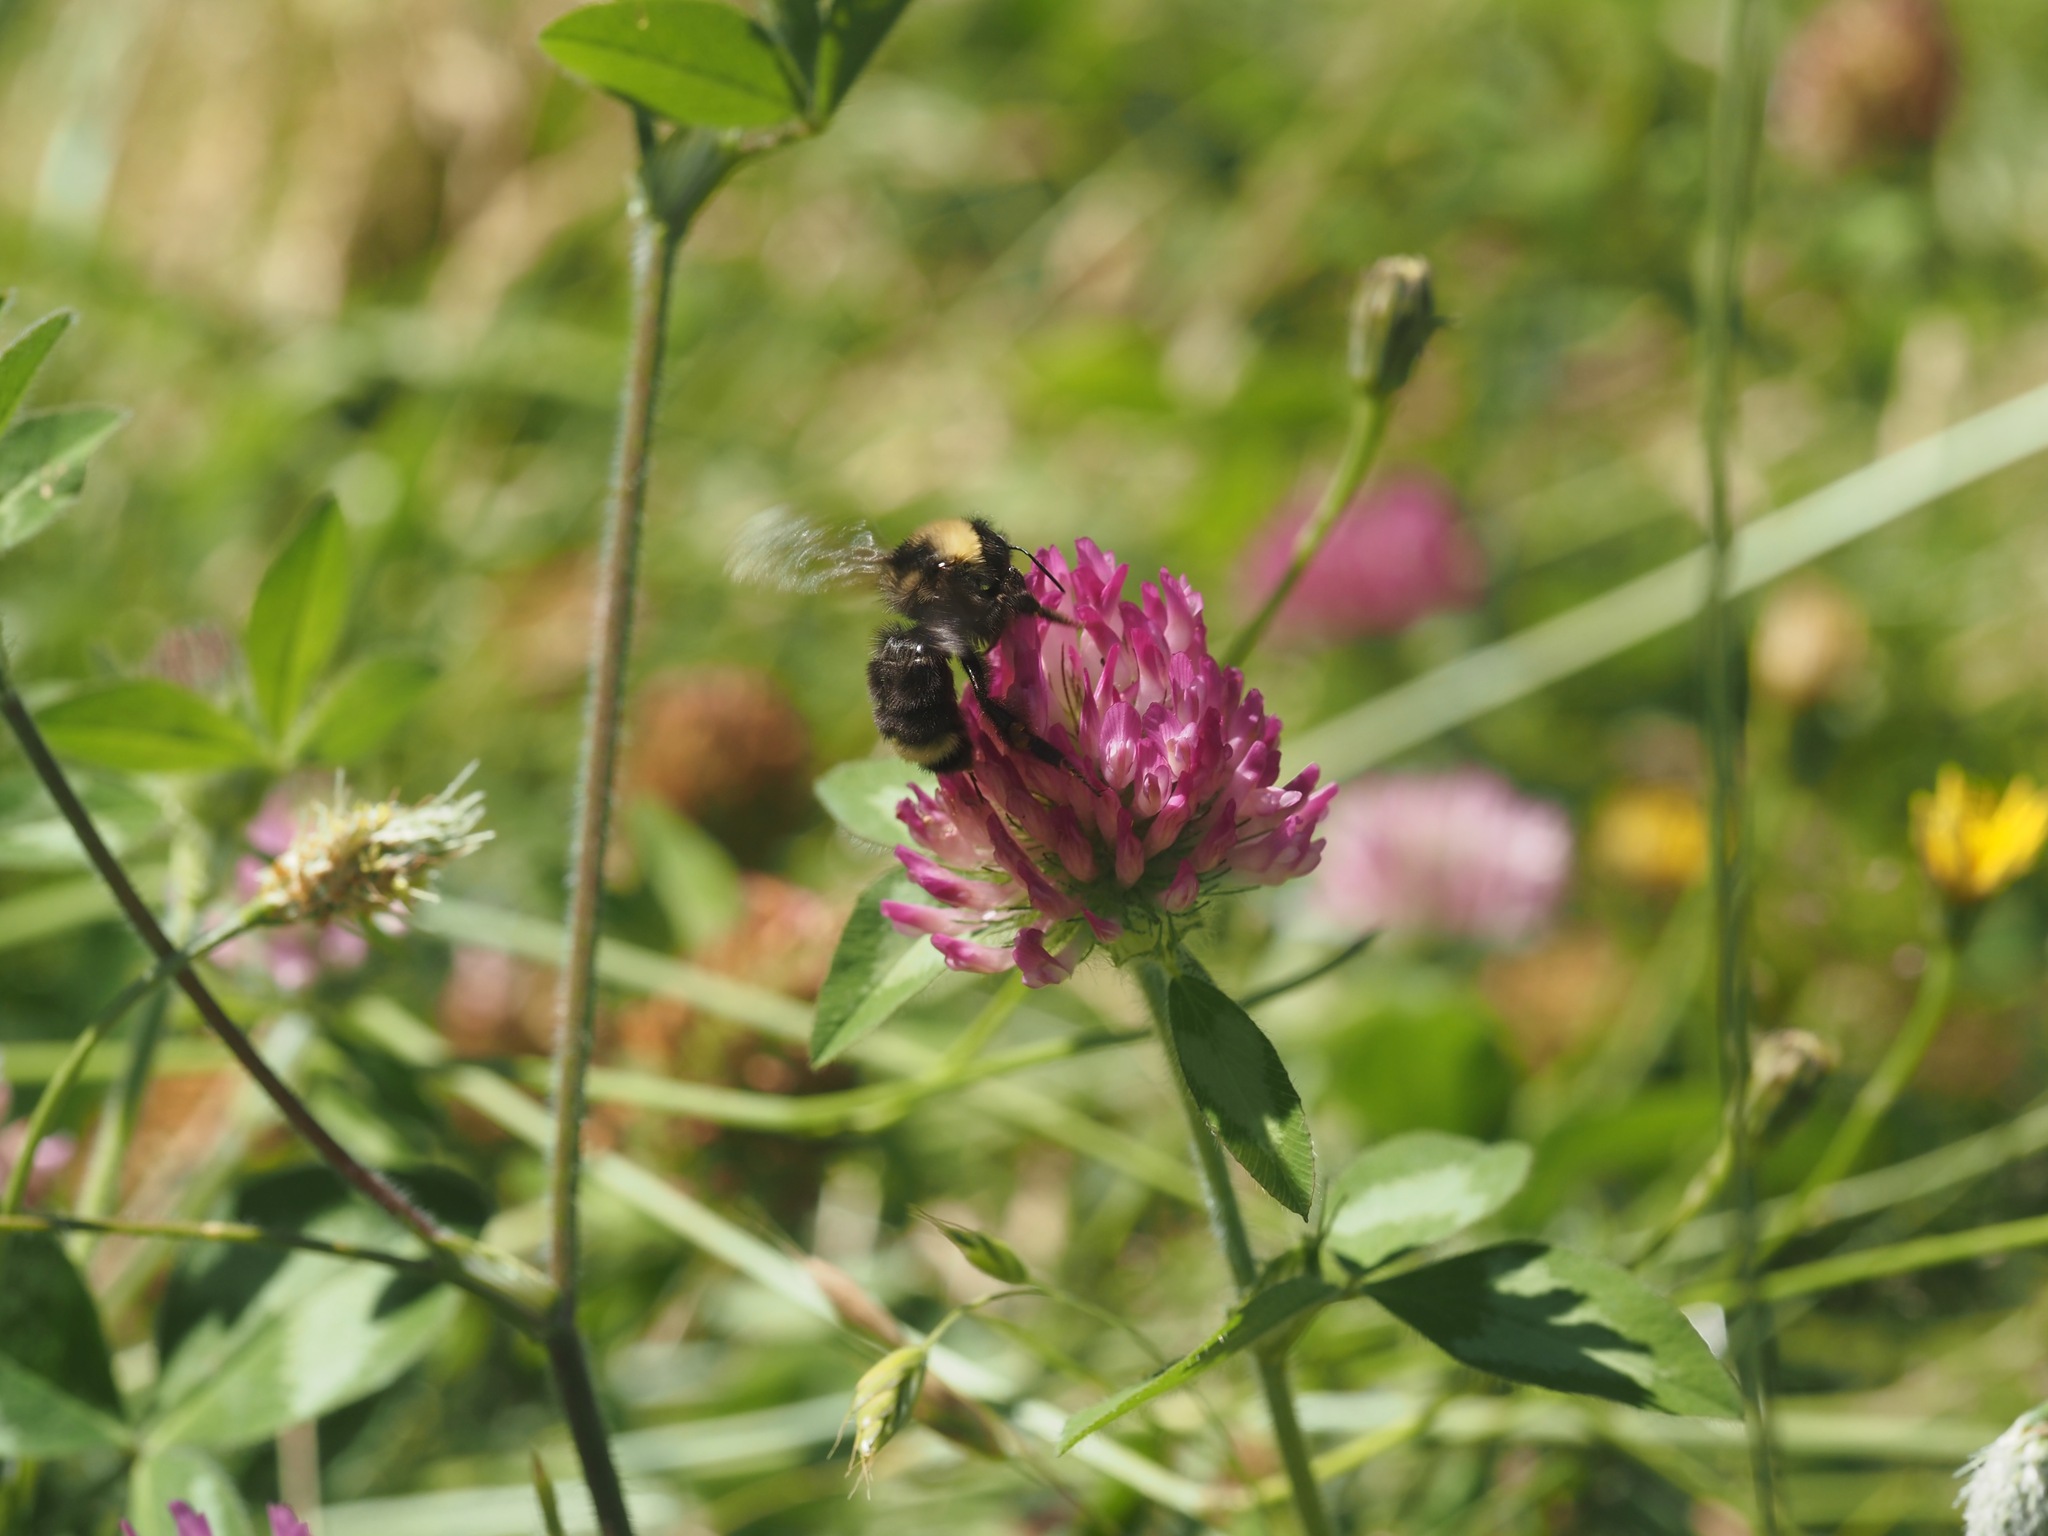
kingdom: Animalia
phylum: Arthropoda
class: Insecta
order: Hymenoptera
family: Apidae
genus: Bombus
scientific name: Bombus californicus
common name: California bumble bee
